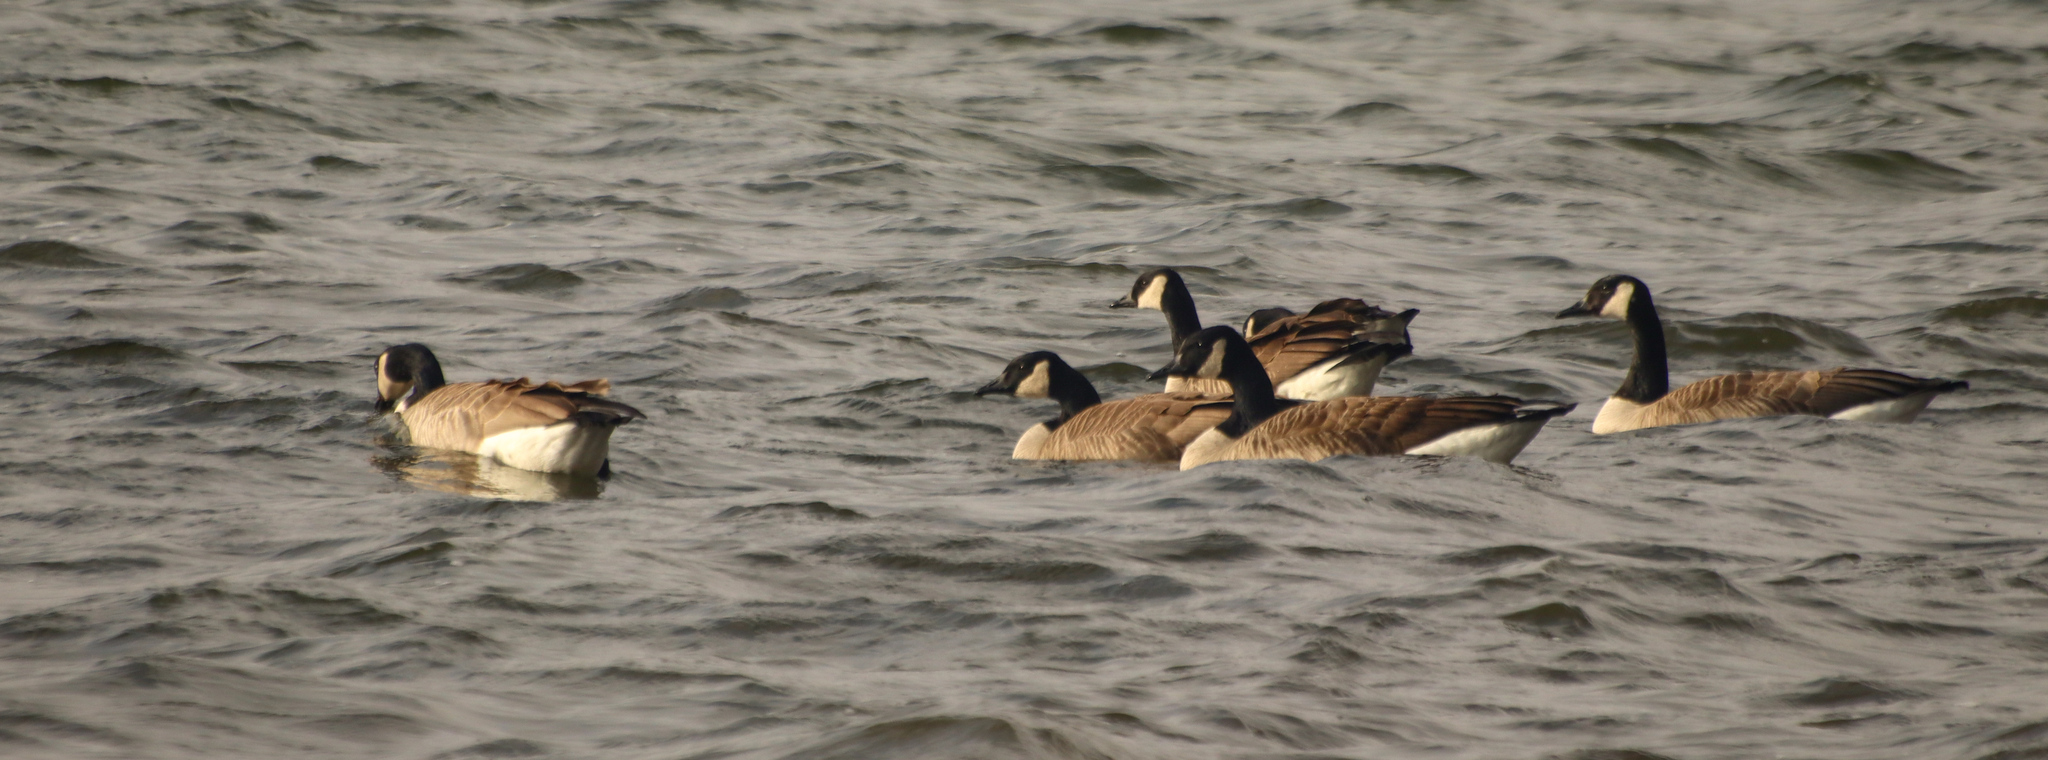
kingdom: Animalia
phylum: Chordata
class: Aves
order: Anseriformes
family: Anatidae
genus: Branta
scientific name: Branta canadensis
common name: Canada goose
